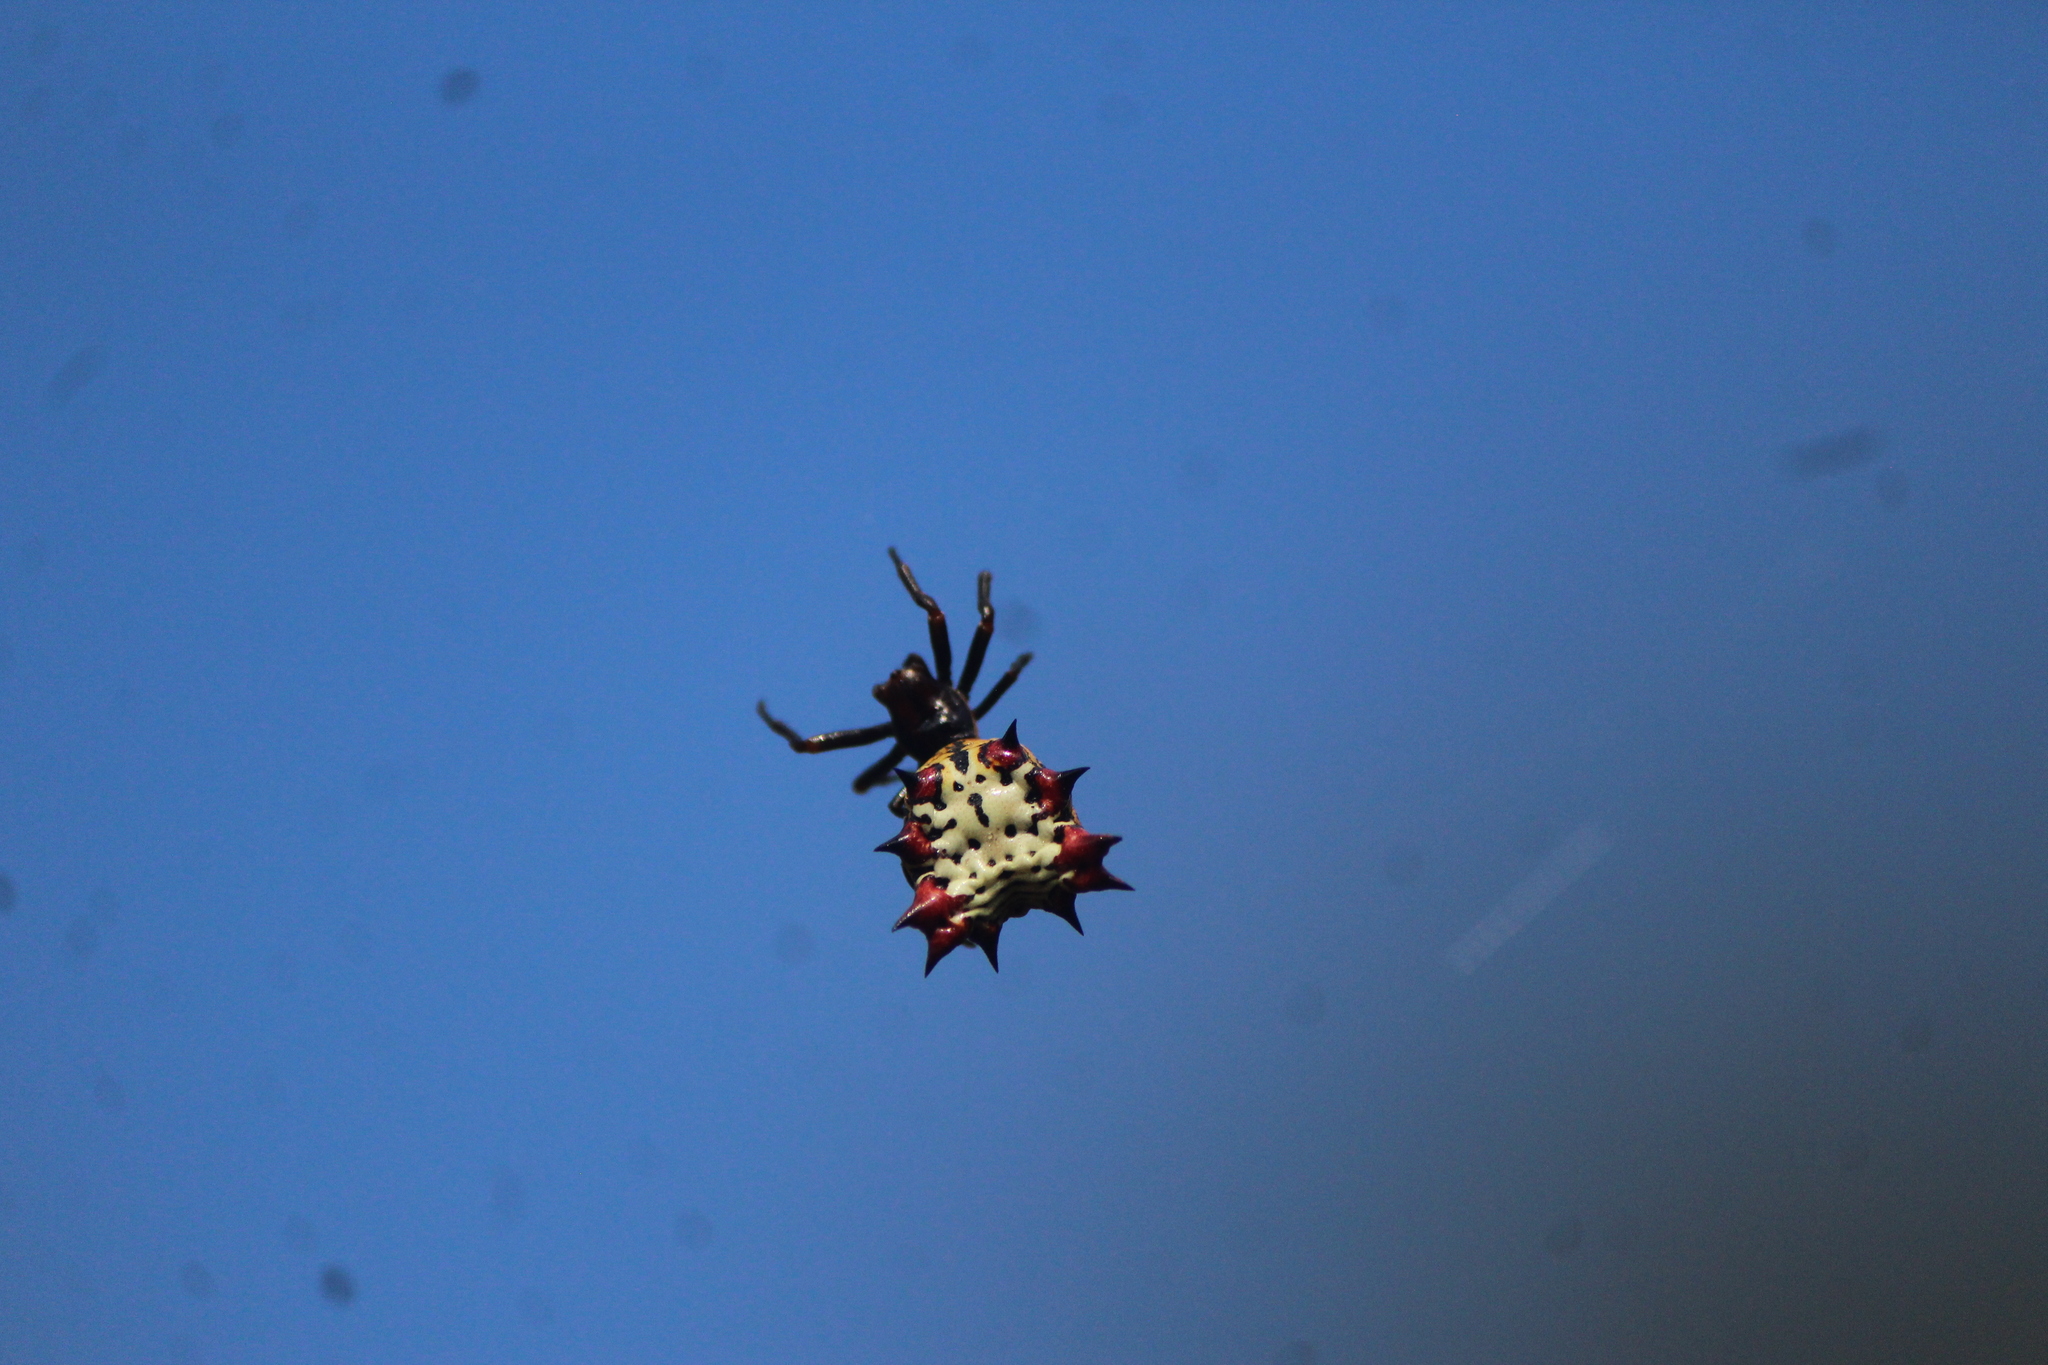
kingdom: Animalia
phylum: Arthropoda
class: Arachnida
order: Araneae
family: Araneidae
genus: Micrathena
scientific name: Micrathena gracilis
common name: Orb weavers
